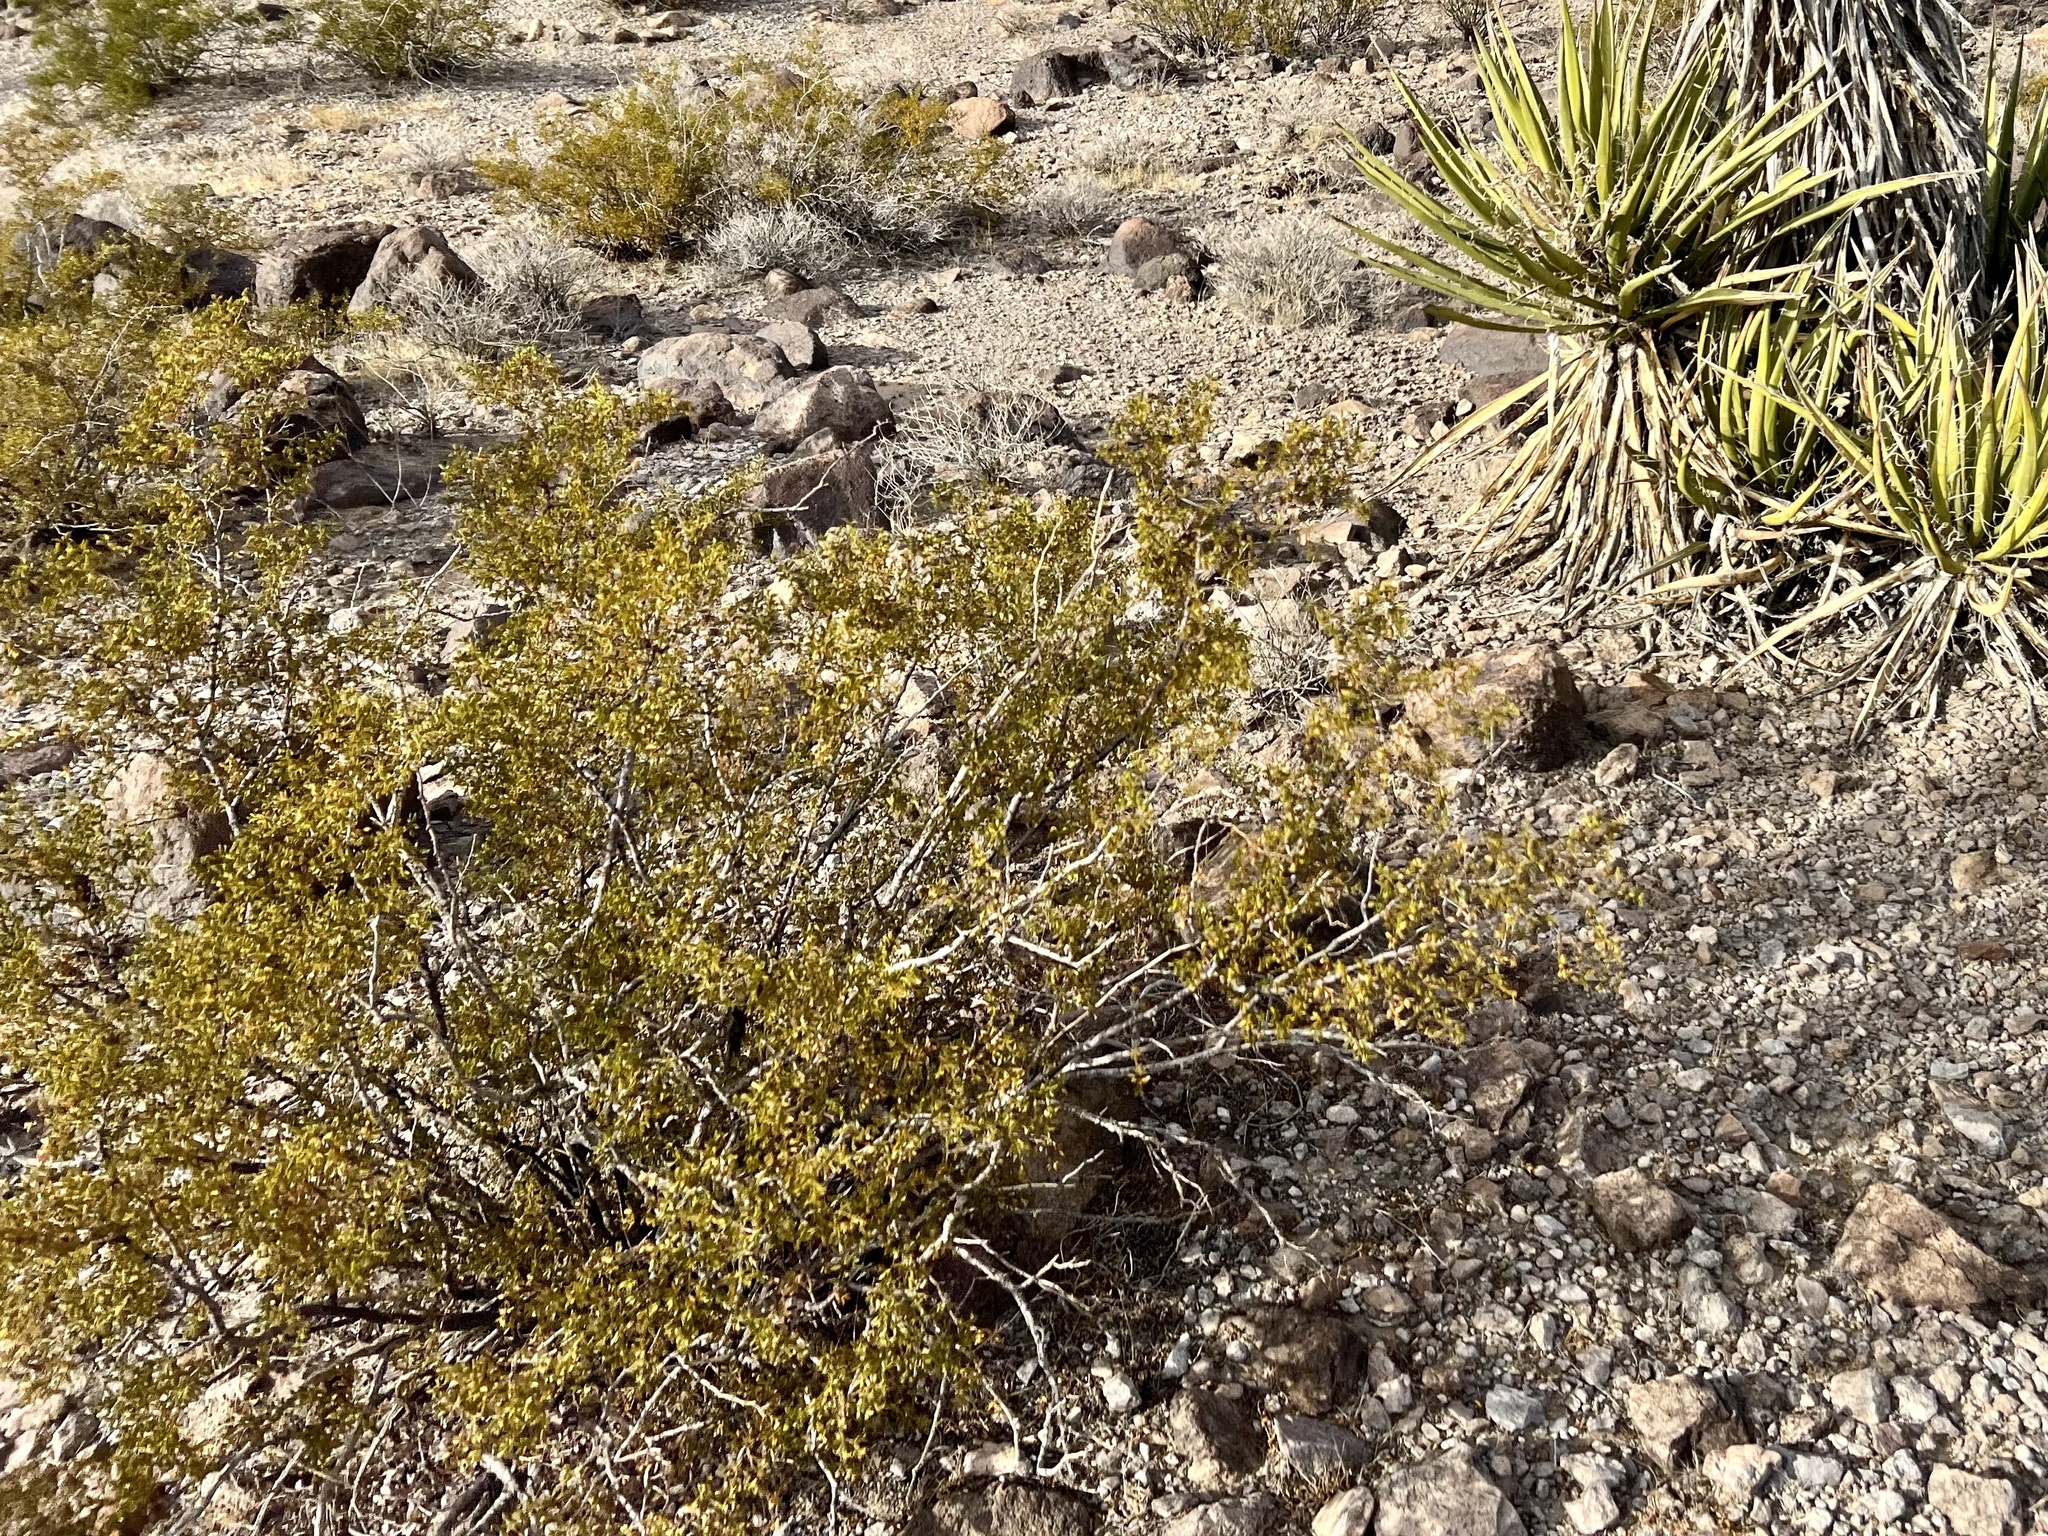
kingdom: Plantae
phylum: Tracheophyta
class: Magnoliopsida
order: Zygophyllales
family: Zygophyllaceae
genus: Larrea
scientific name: Larrea tridentata
